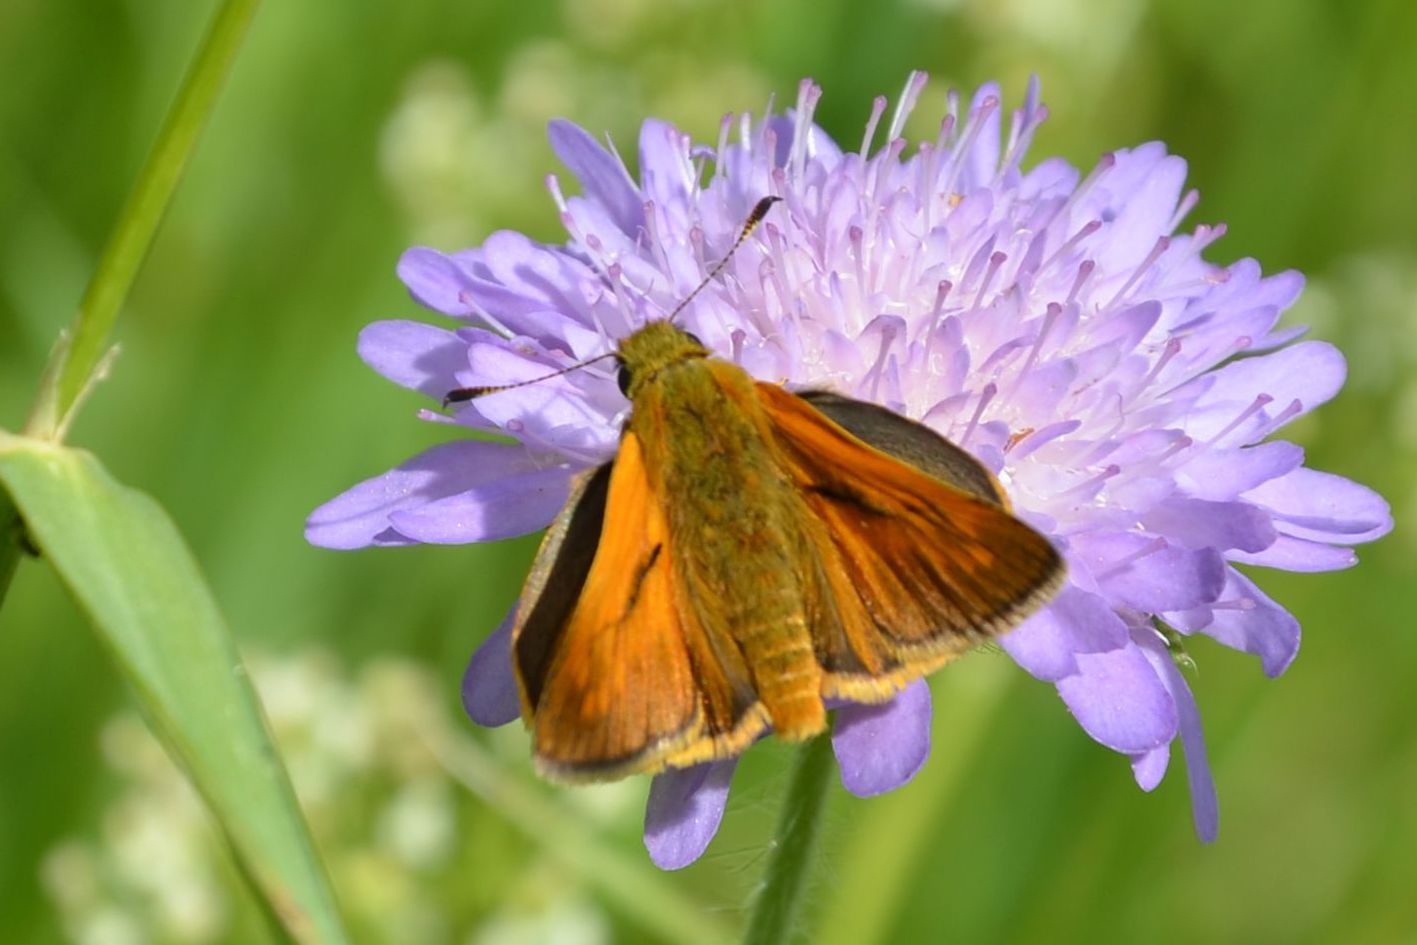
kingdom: Animalia
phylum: Arthropoda
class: Insecta
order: Lepidoptera
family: Hesperiidae
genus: Ochlodes
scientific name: Ochlodes venata
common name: Large skipper
